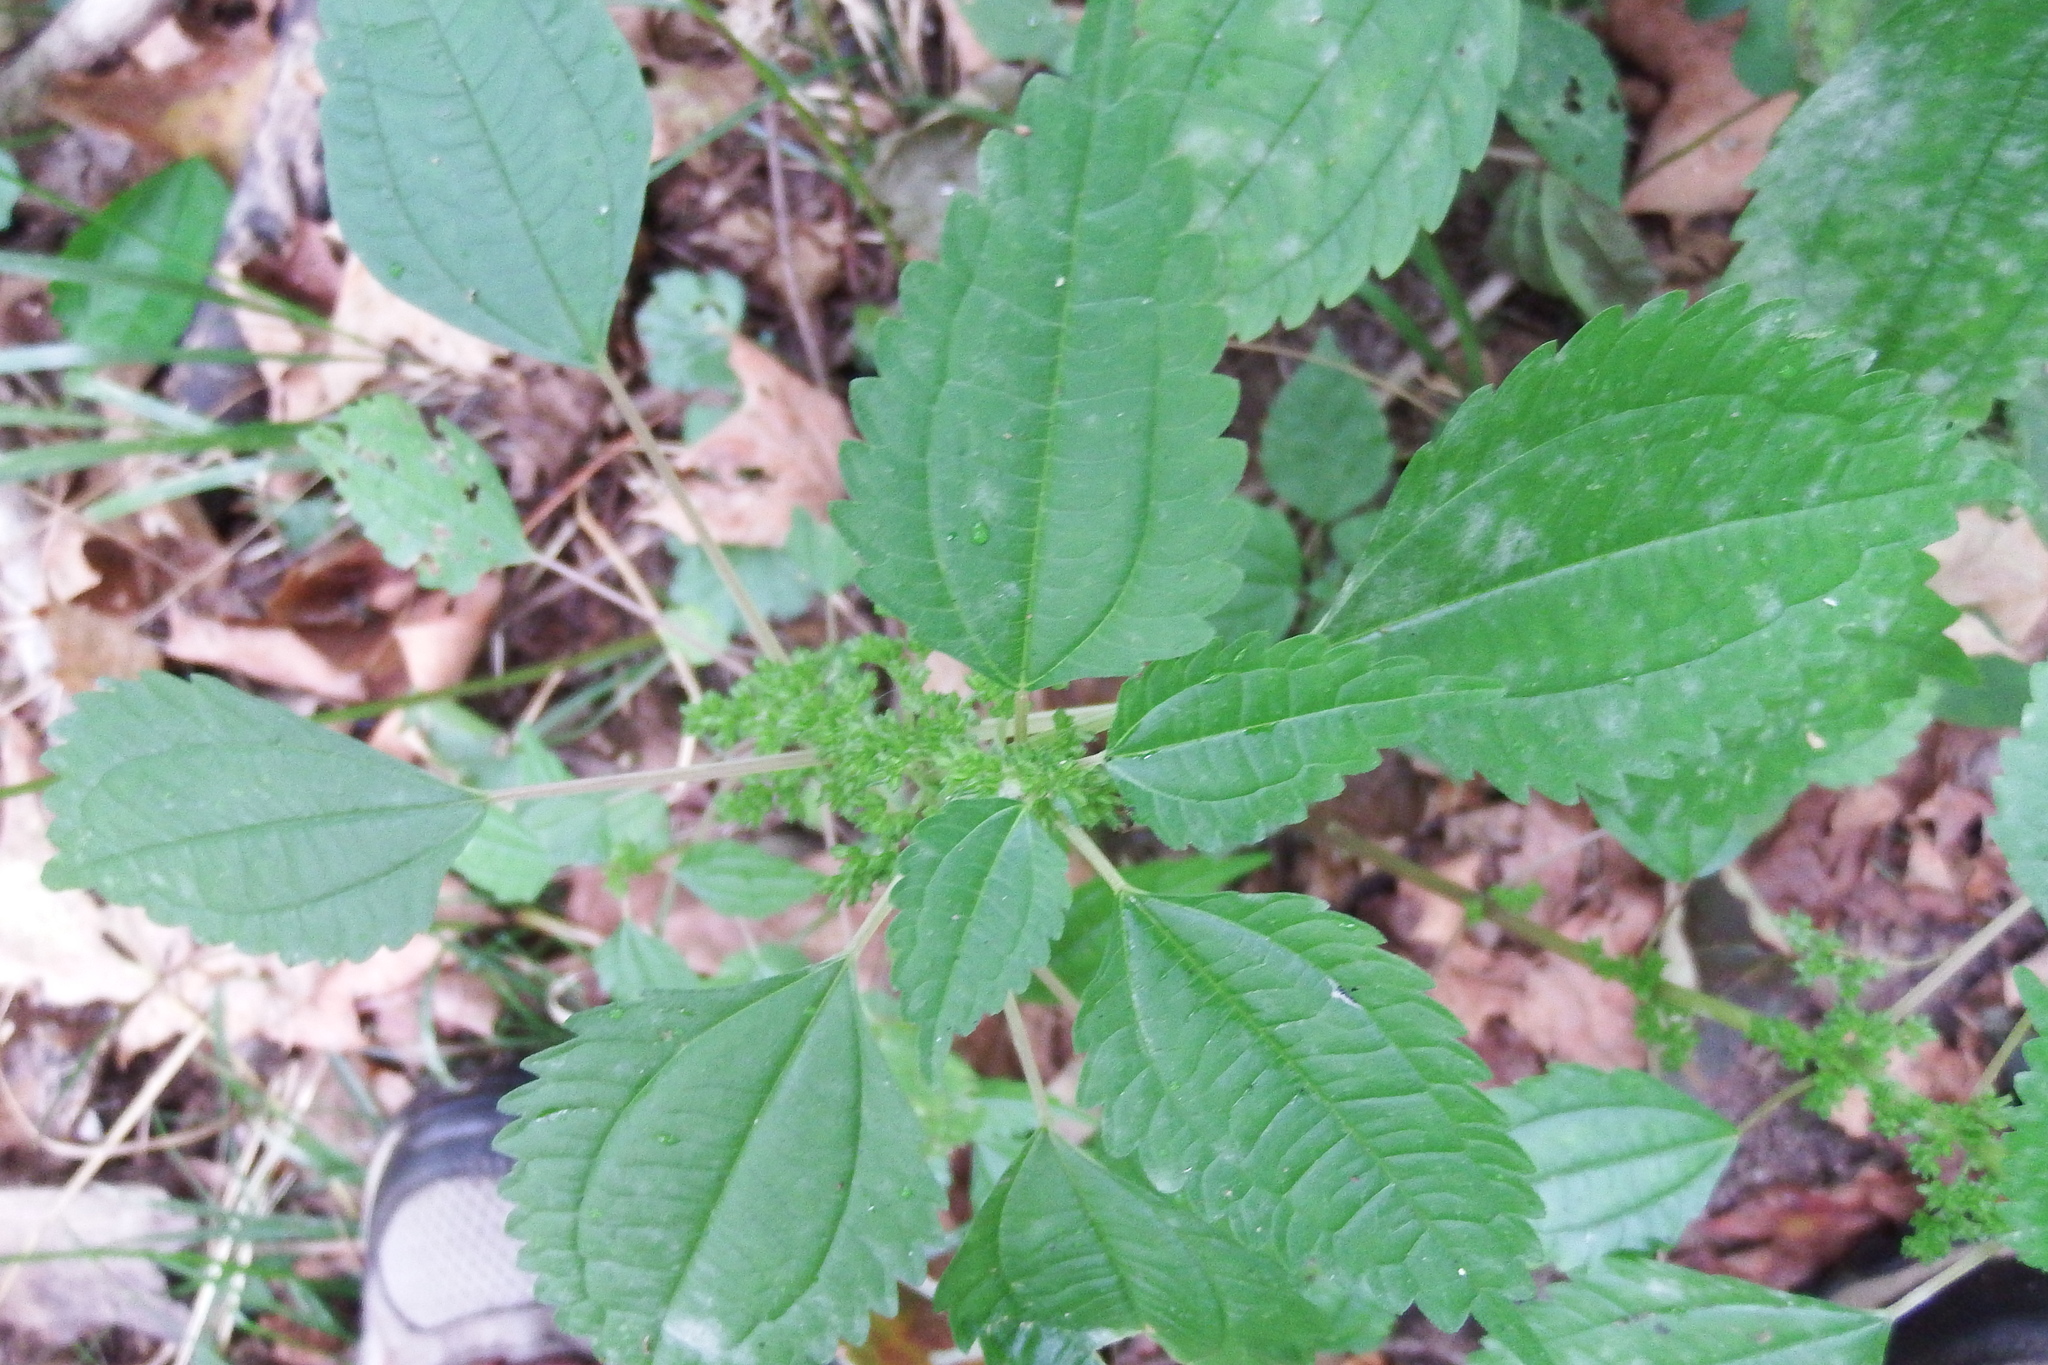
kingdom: Plantae
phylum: Tracheophyta
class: Magnoliopsida
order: Rosales
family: Urticaceae
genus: Pilea
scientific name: Pilea pumila
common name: Clearweed
